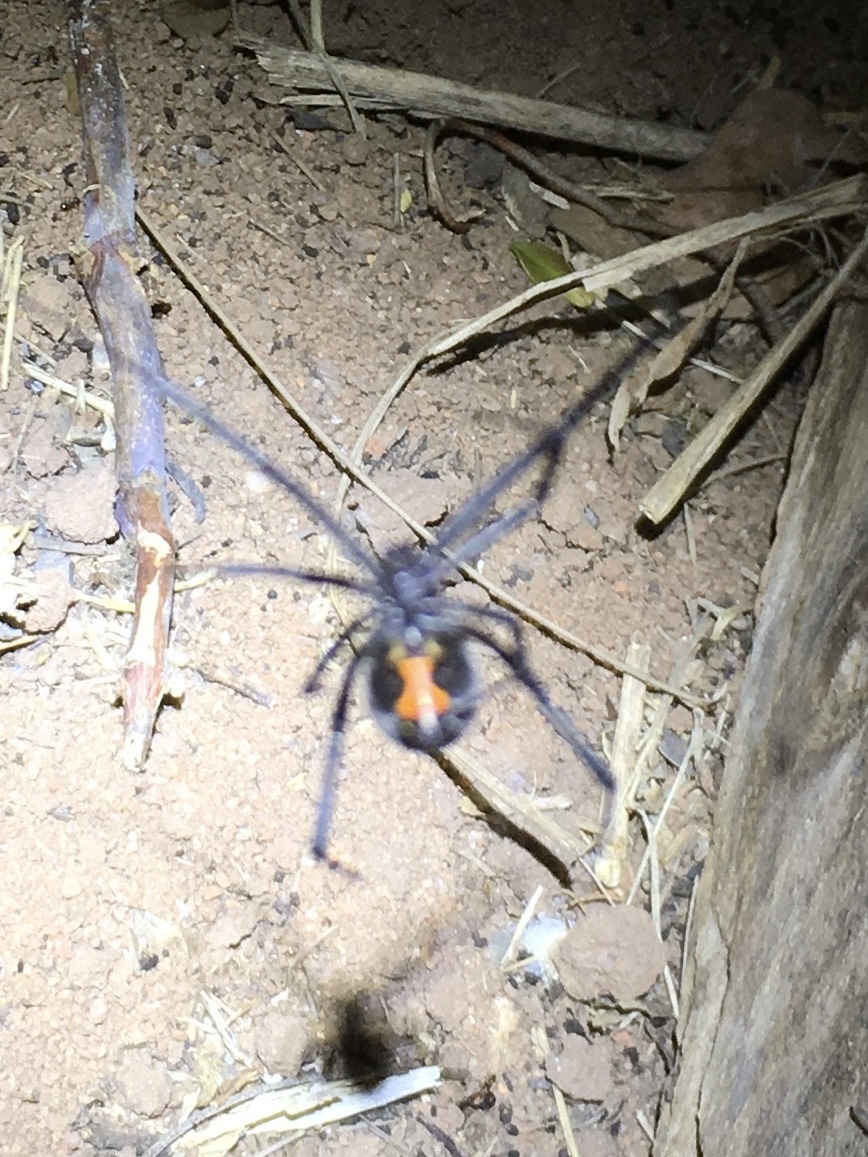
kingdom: Animalia
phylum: Arthropoda
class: Arachnida
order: Araneae
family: Theridiidae
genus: Latrodectus
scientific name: Latrodectus geometricus
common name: Brown widow spider
